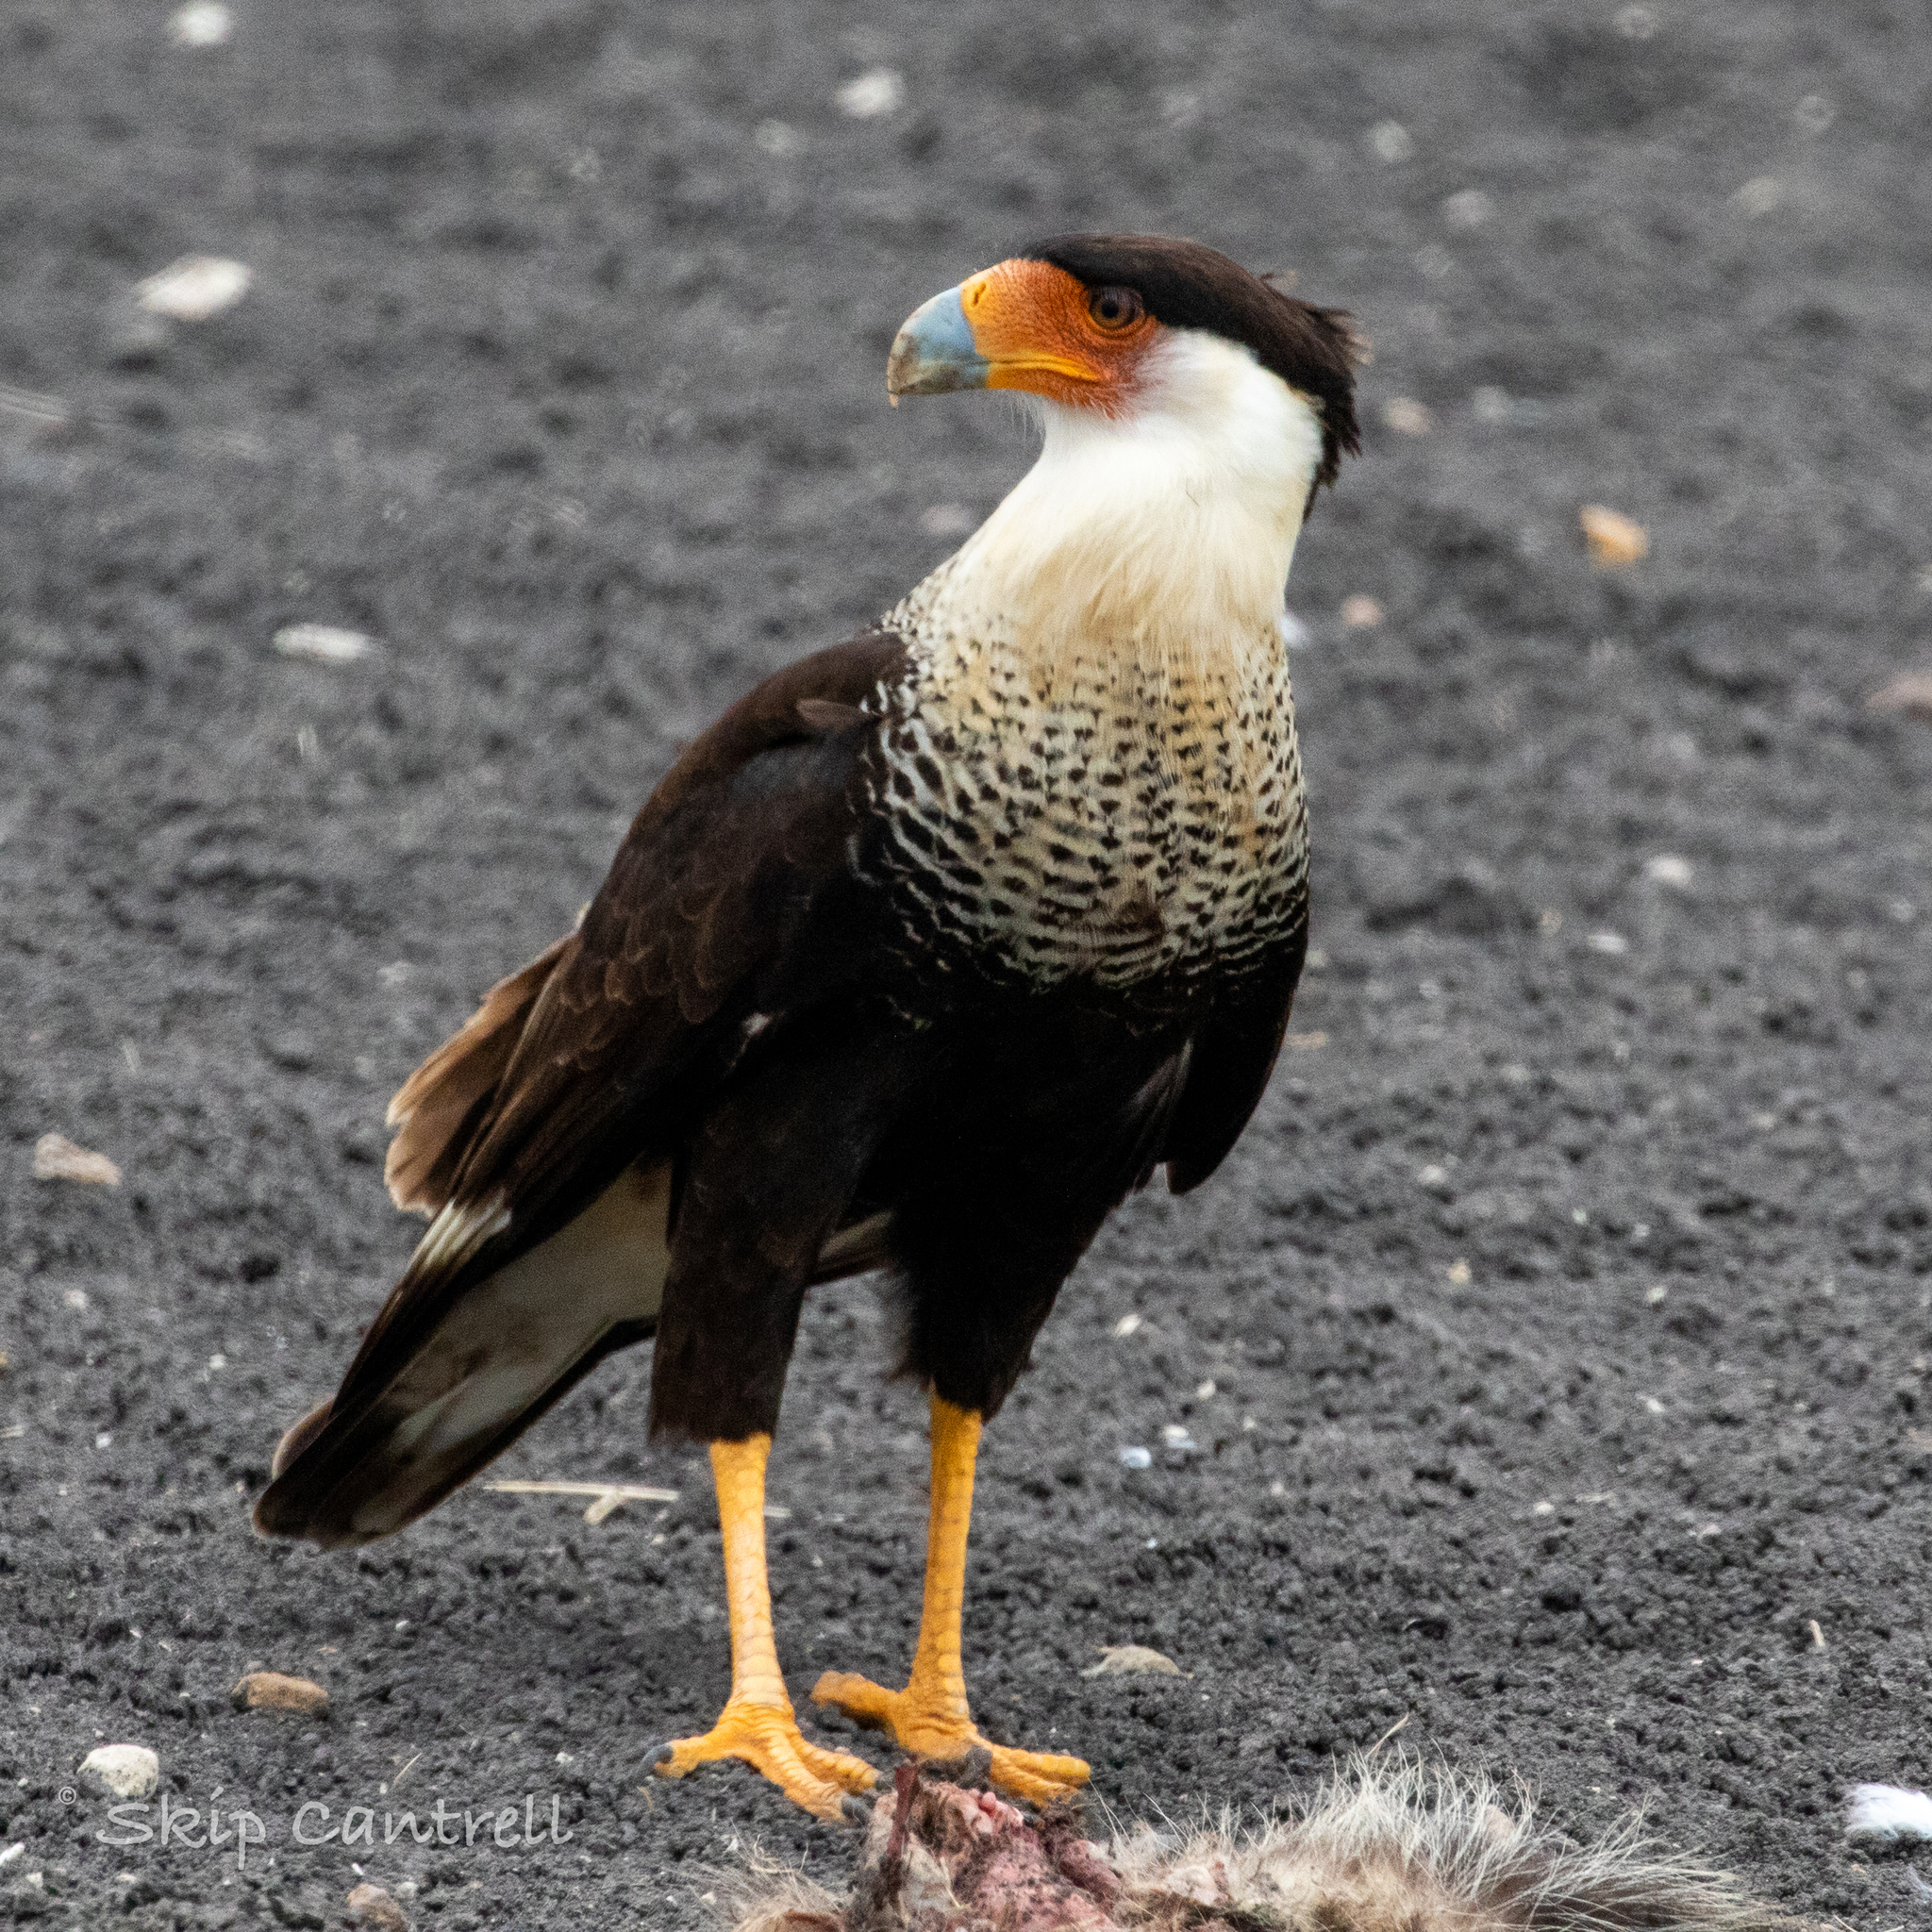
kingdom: Animalia
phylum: Chordata
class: Aves
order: Falconiformes
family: Falconidae
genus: Caracara
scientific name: Caracara plancus
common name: Southern caracara
